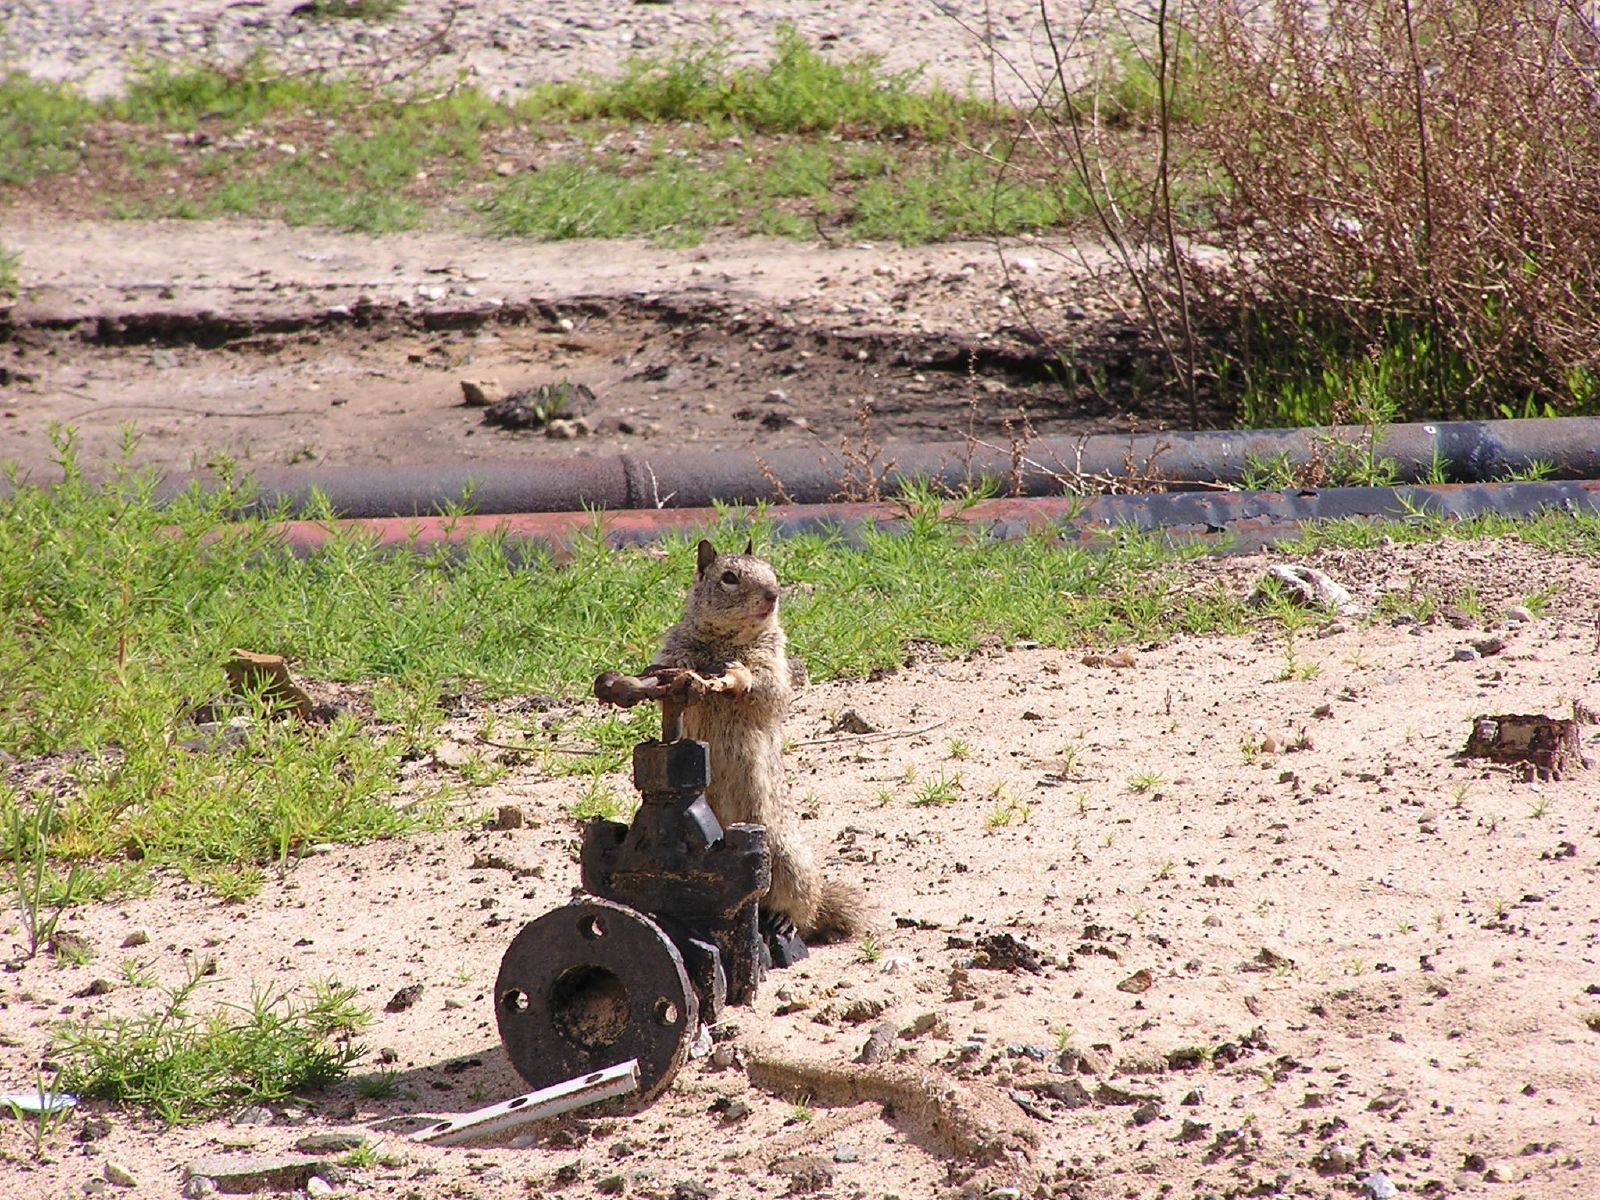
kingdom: Animalia
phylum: Chordata
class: Mammalia
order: Rodentia
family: Sciuridae
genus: Otospermophilus
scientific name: Otospermophilus beecheyi
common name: California ground squirrel
